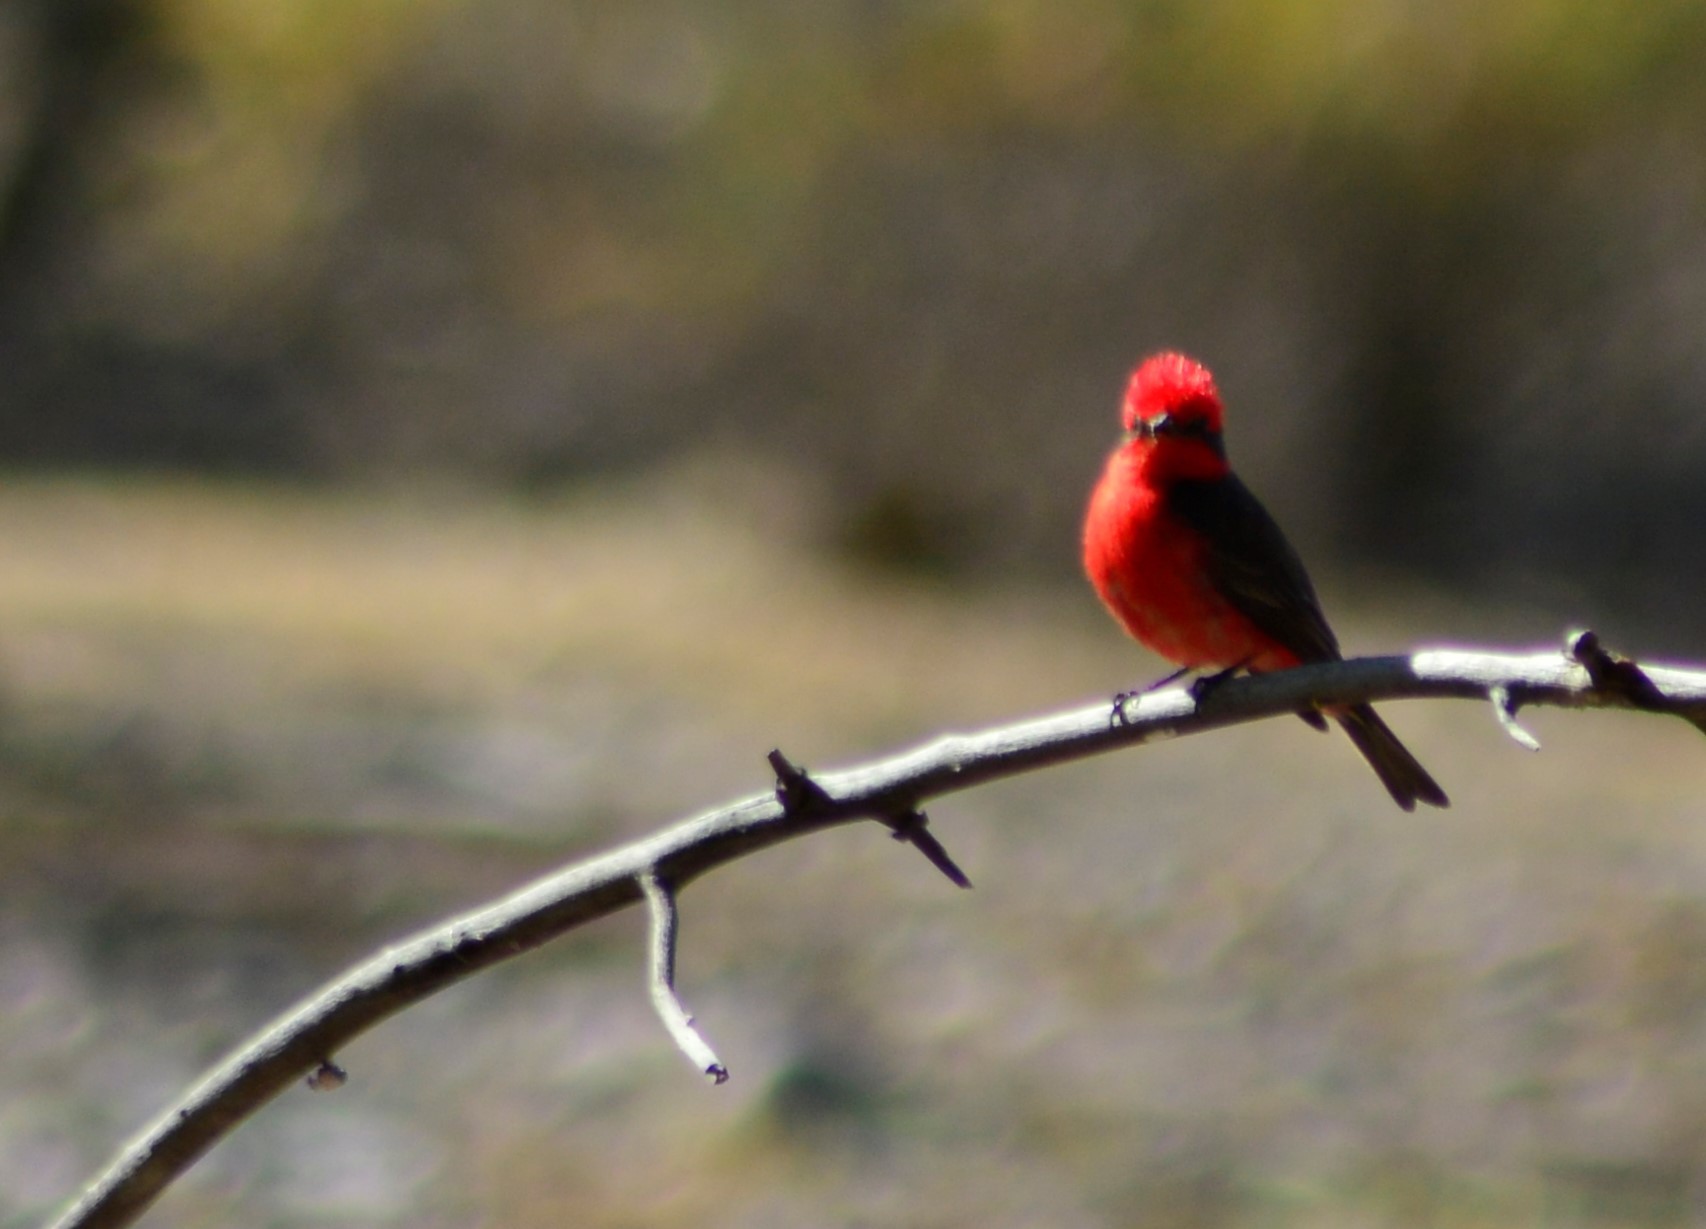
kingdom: Animalia
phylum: Chordata
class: Aves
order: Passeriformes
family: Tyrannidae
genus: Pyrocephalus
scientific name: Pyrocephalus rubinus
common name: Vermilion flycatcher
